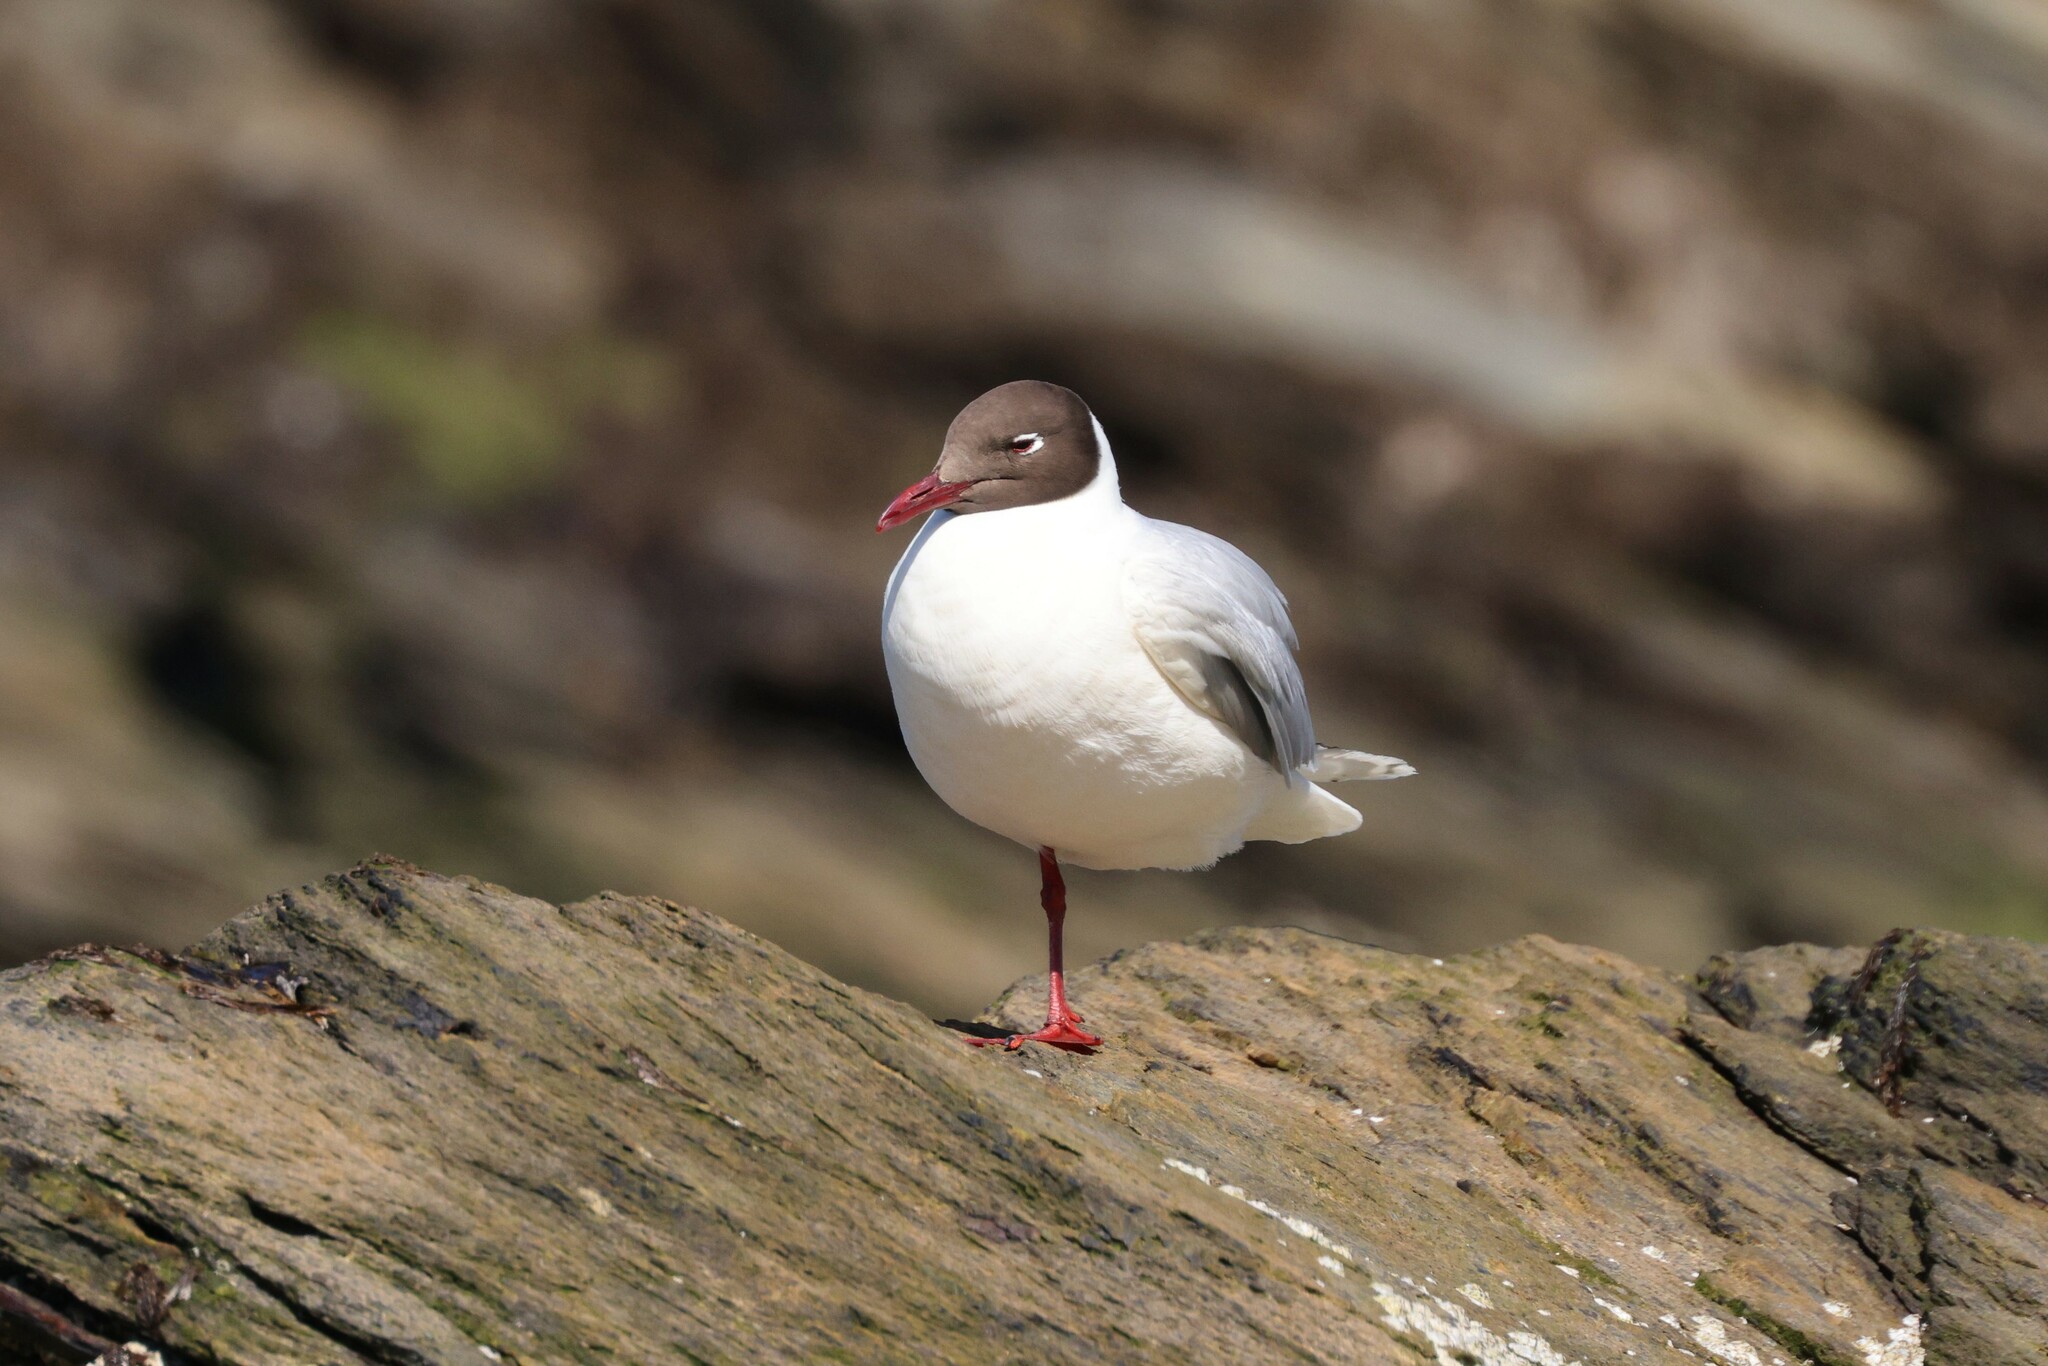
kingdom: Animalia
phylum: Chordata
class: Aves
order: Charadriiformes
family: Laridae
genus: Chroicocephalus
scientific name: Chroicocephalus maculipennis
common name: Brown-hooded gull
